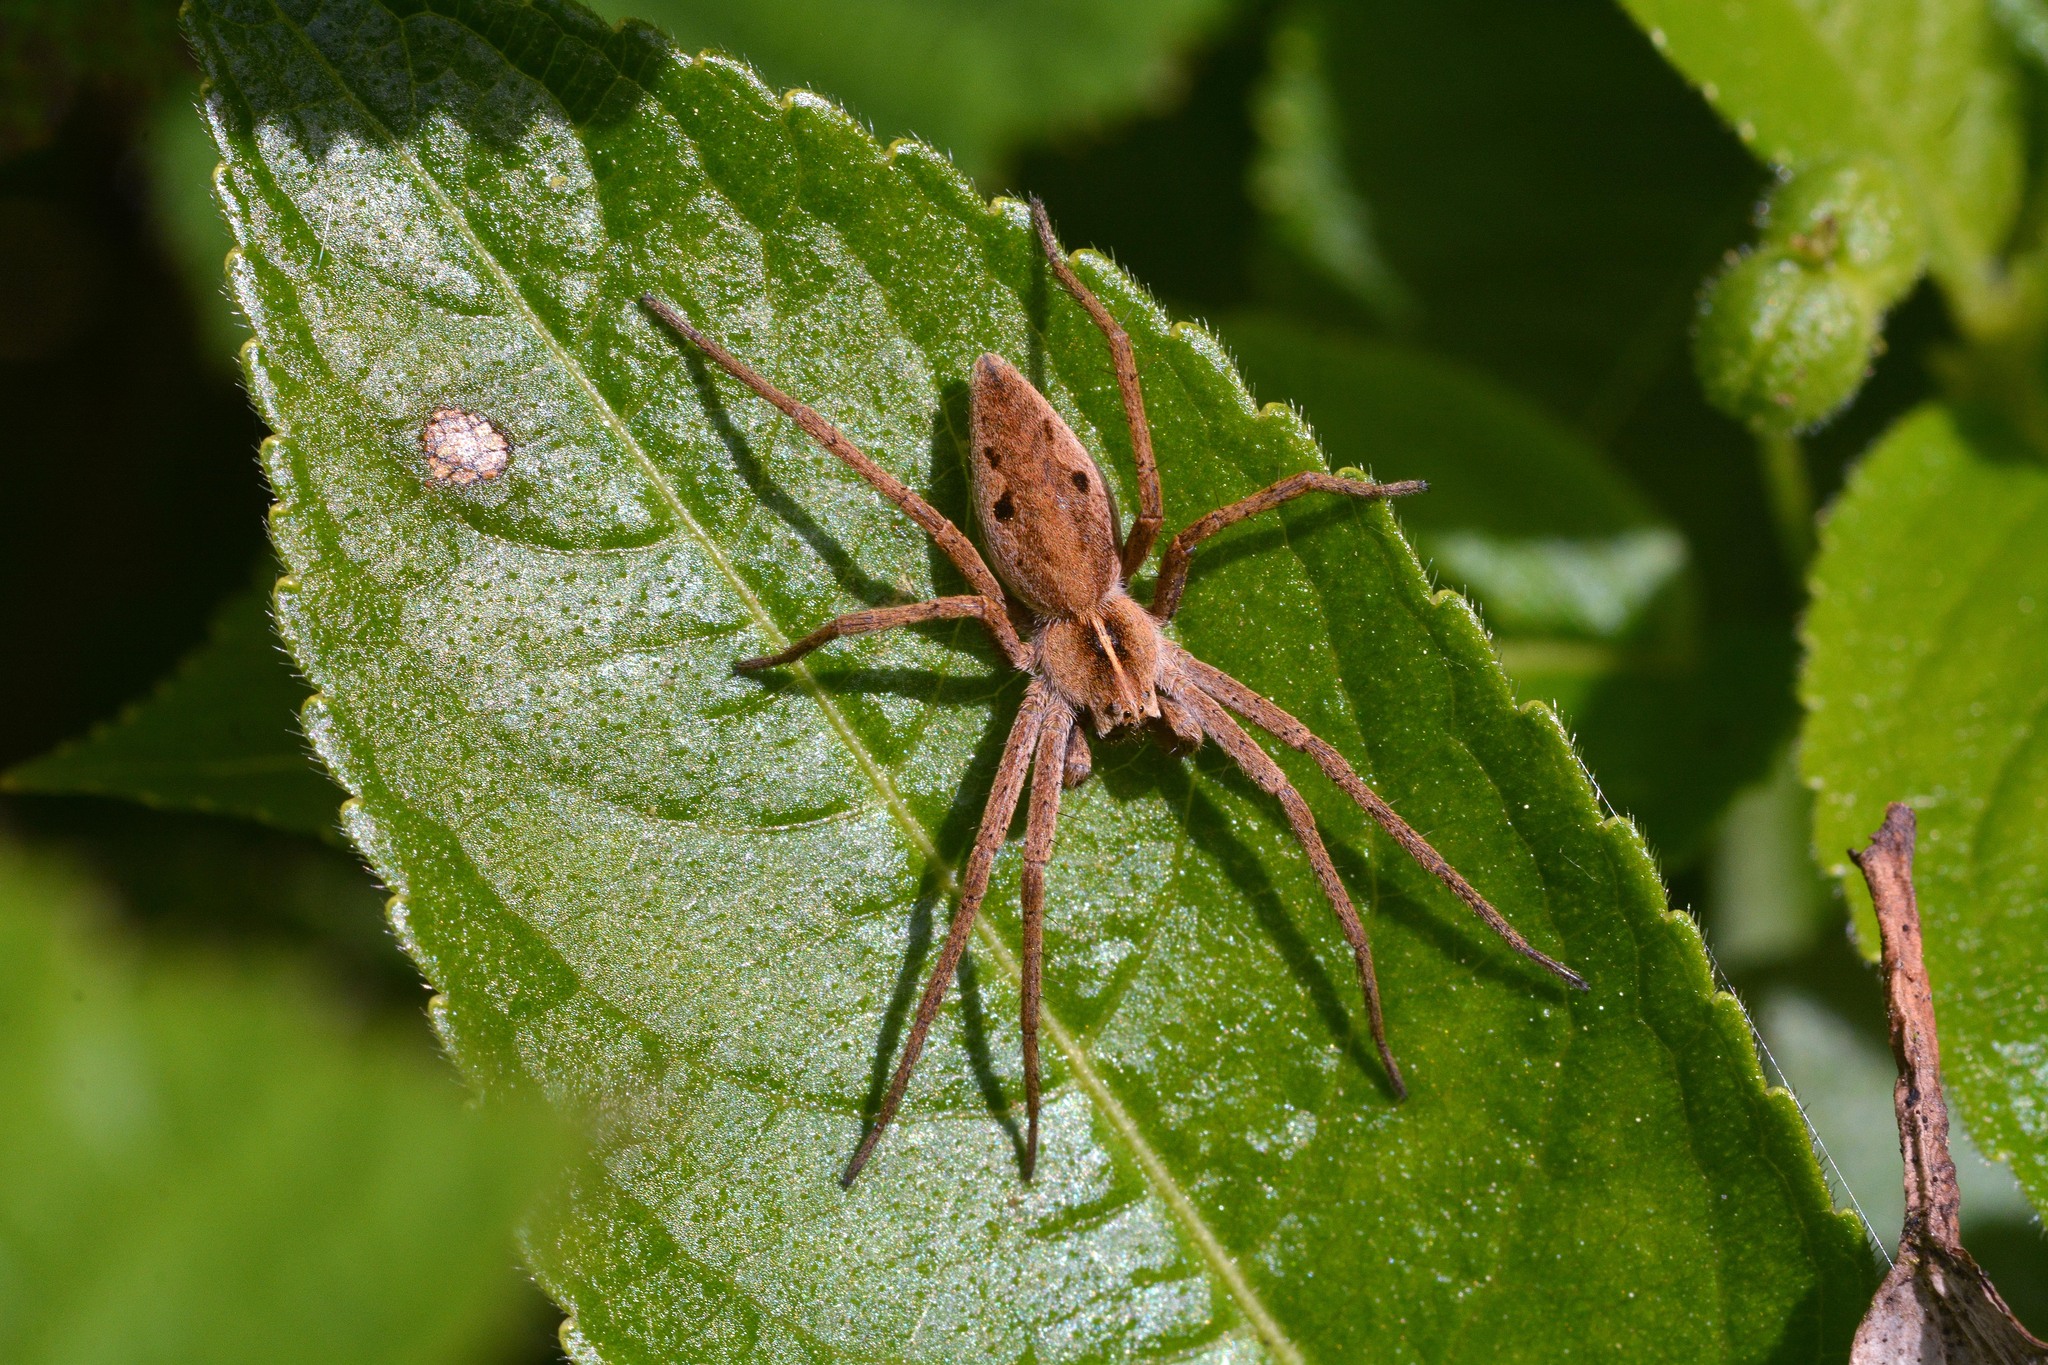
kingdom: Animalia
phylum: Arthropoda
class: Arachnida
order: Araneae
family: Pisauridae
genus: Pisaura
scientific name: Pisaura mirabilis
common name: Tent spider
